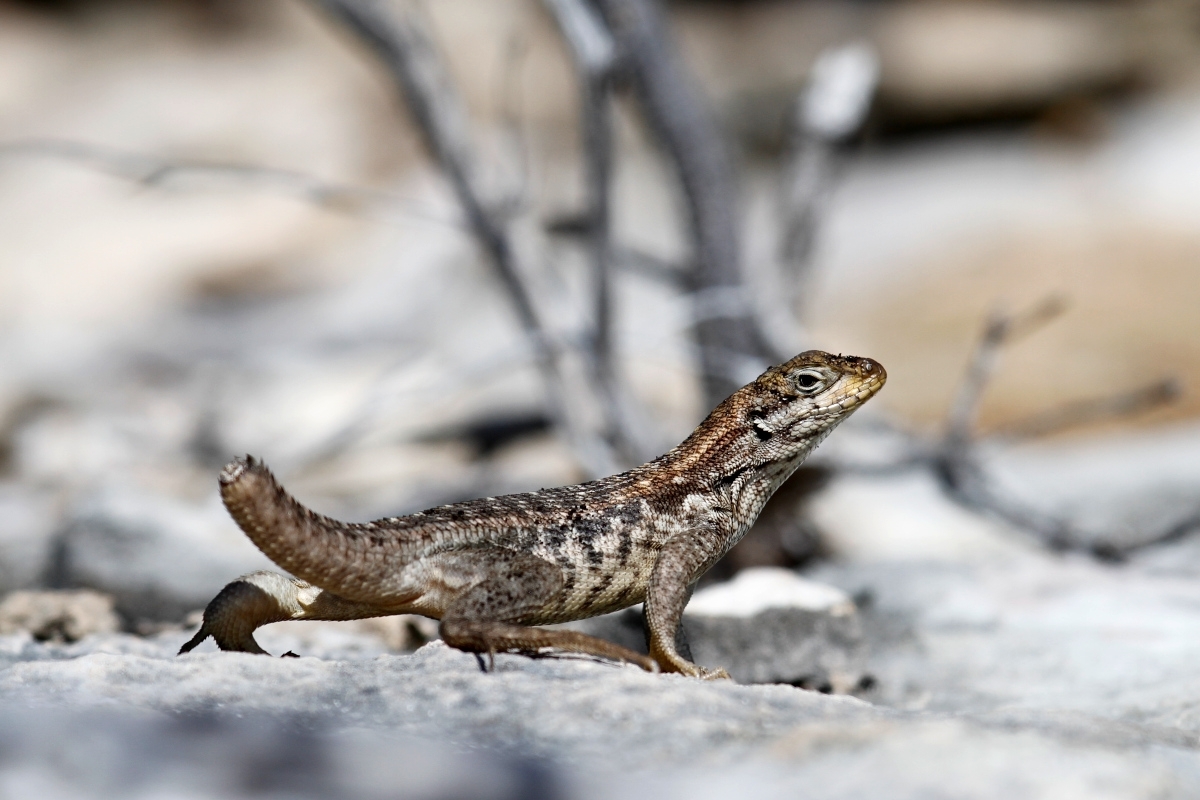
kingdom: Animalia
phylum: Chordata
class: Squamata
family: Leiocephalidae
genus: Leiocephalus
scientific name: Leiocephalus carinatus
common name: Northern curly-tailed lizard
